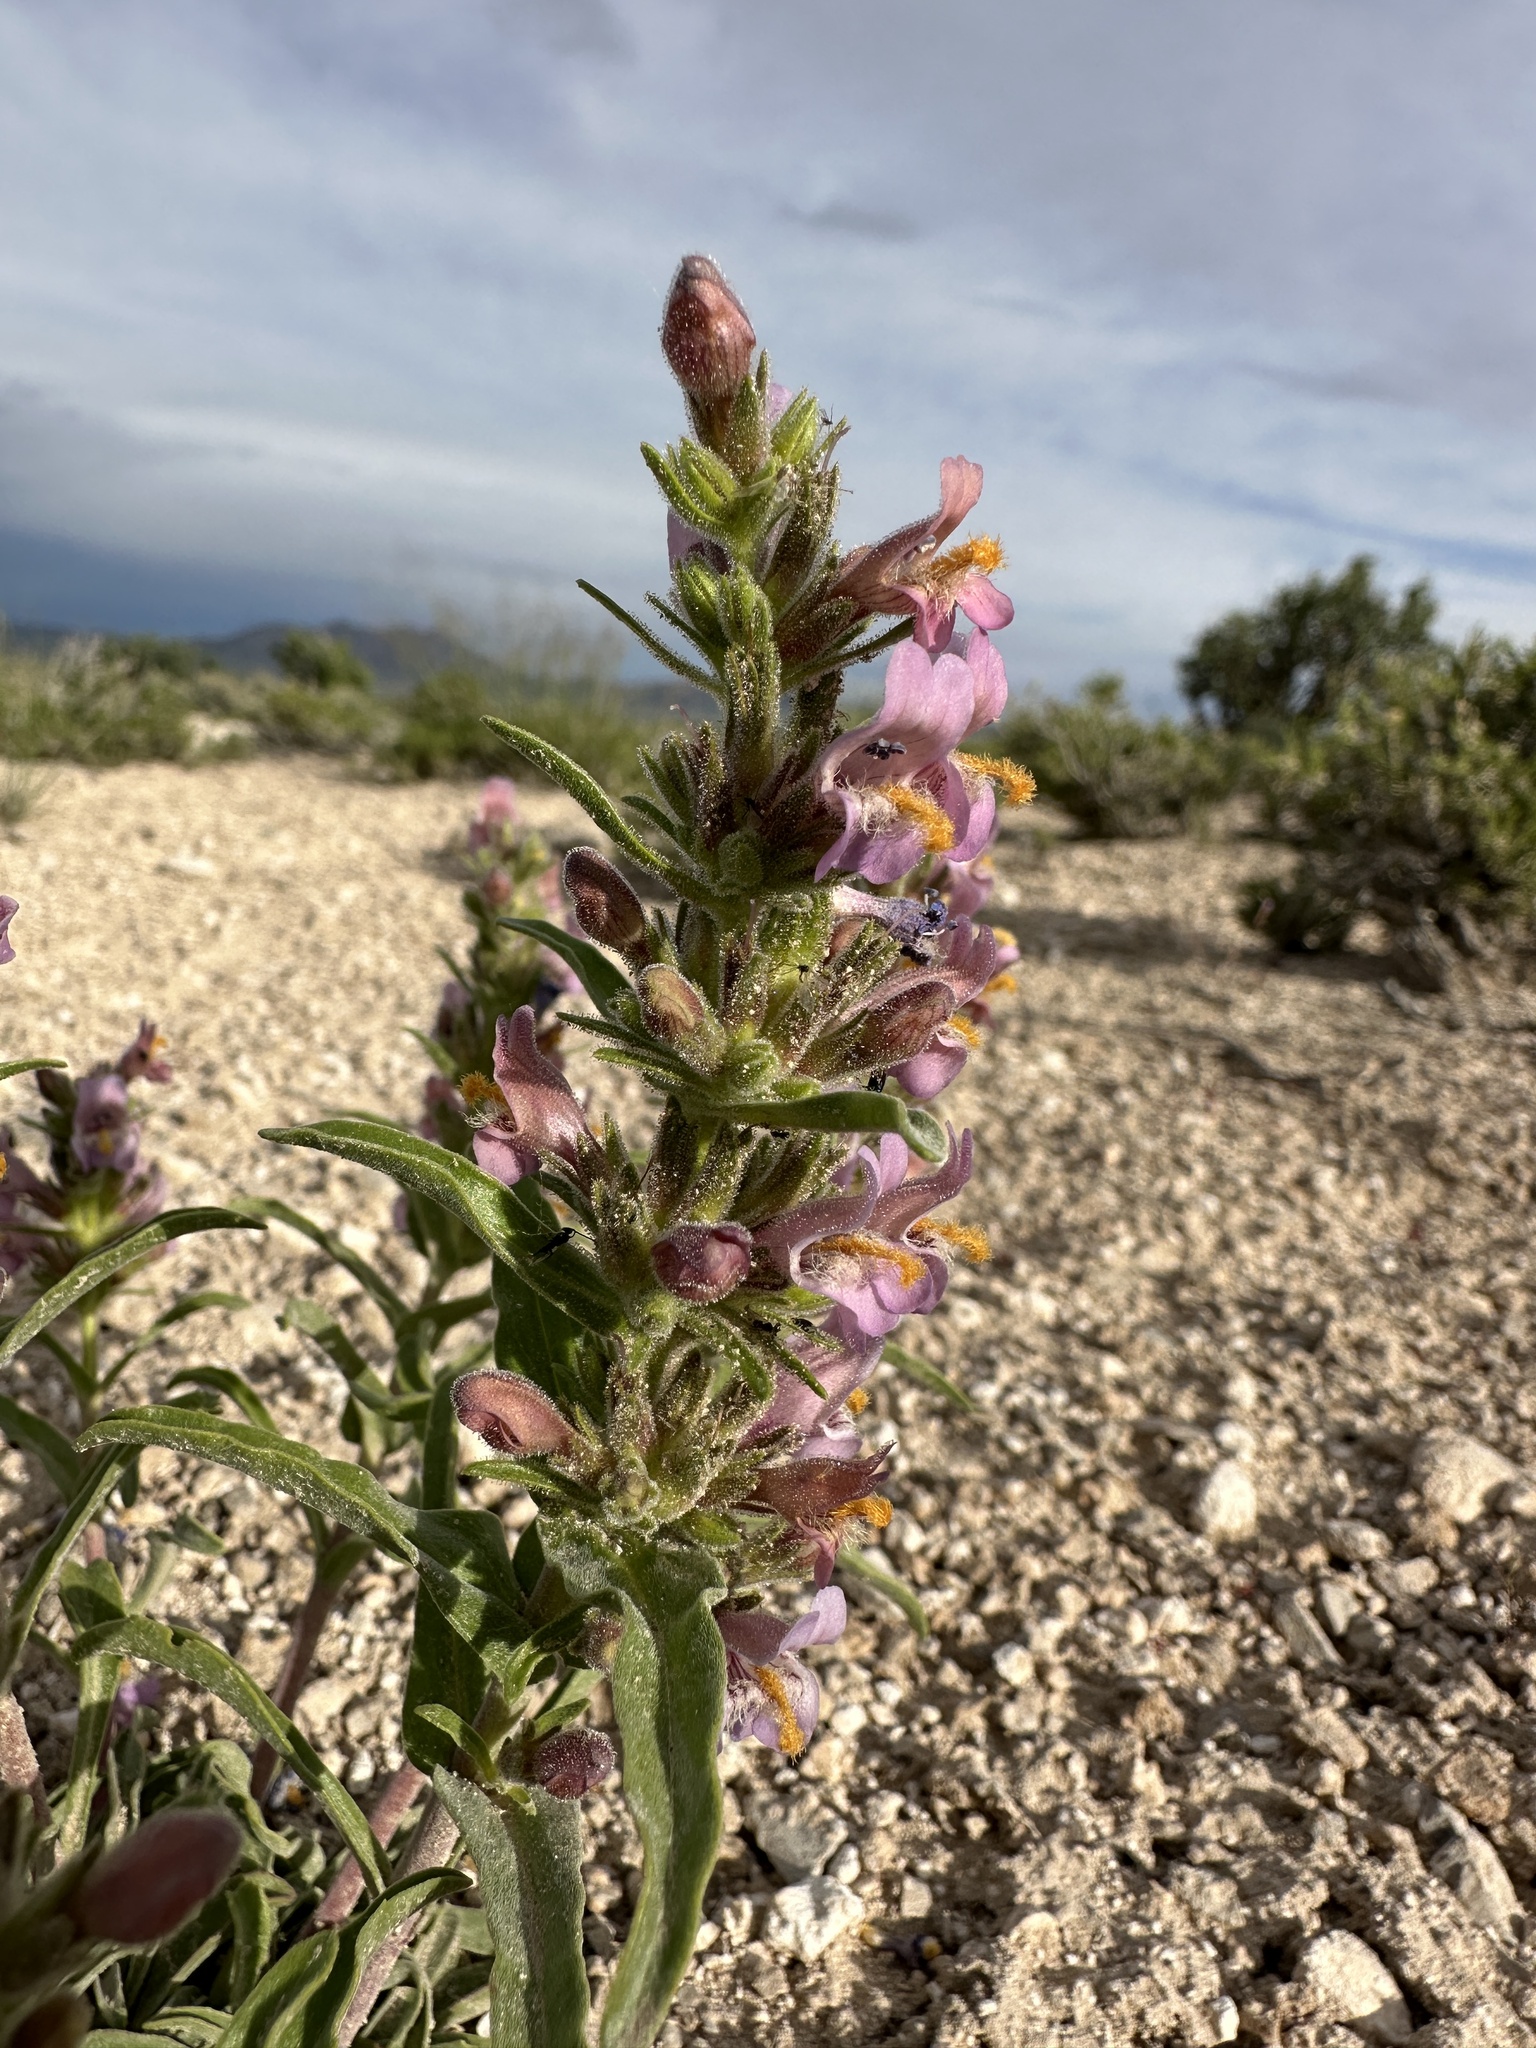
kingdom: Plantae
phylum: Tracheophyta
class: Magnoliopsida
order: Lamiales
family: Plantaginaceae
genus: Penstemon
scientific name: Penstemon barnebyi
